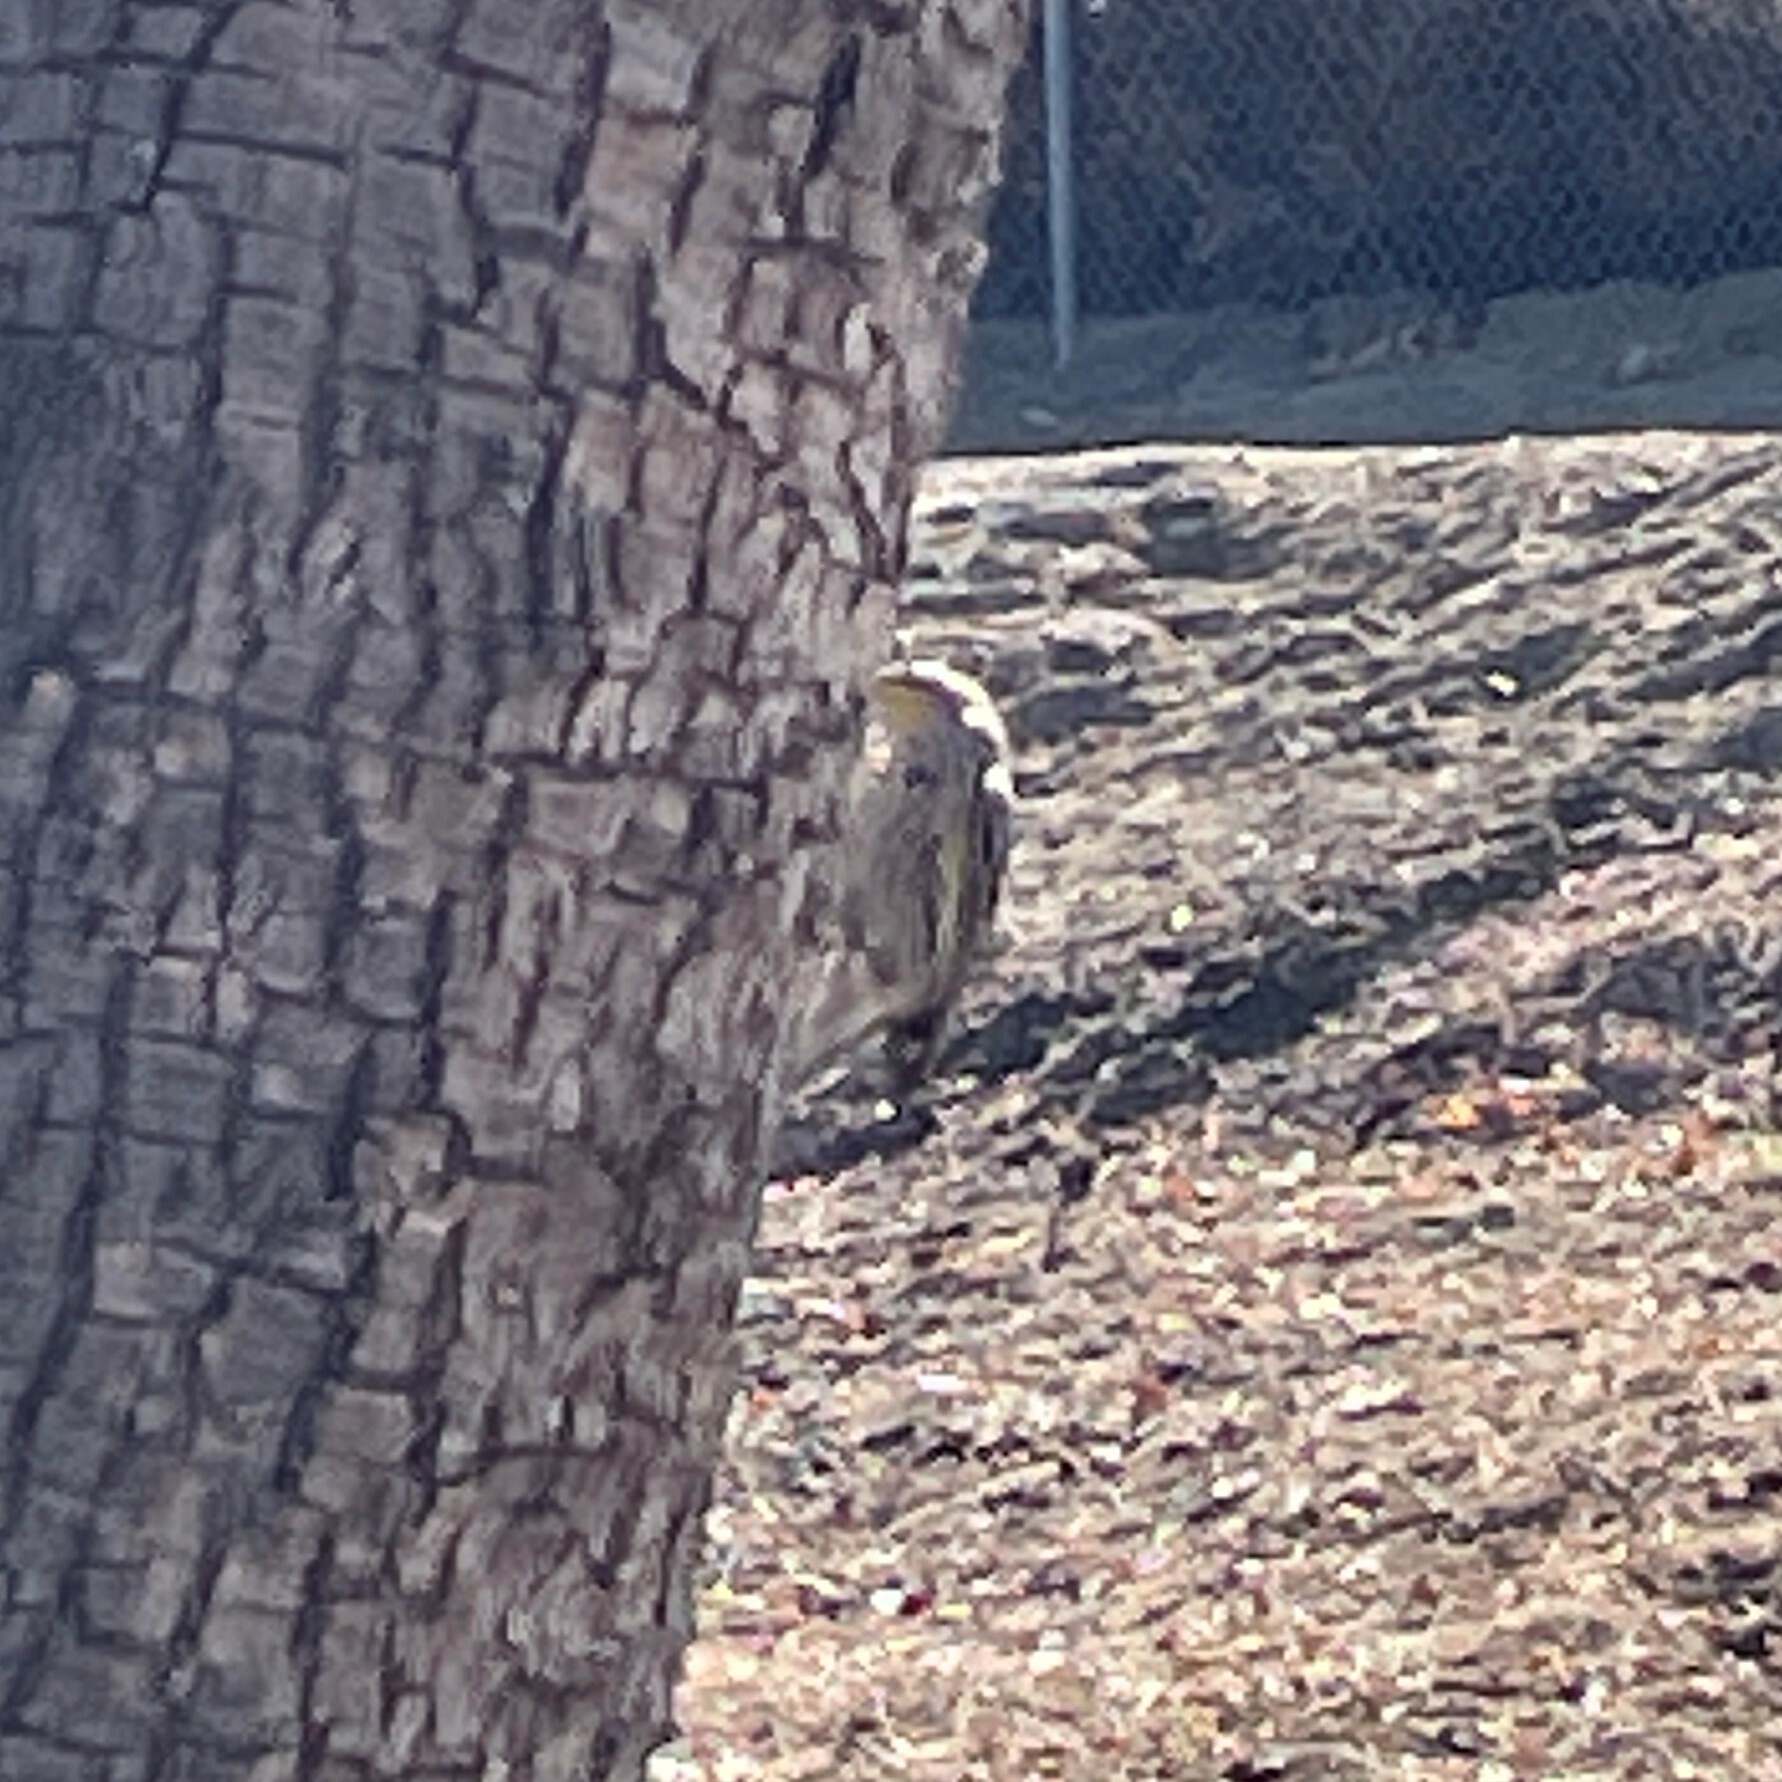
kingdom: Animalia
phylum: Chordata
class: Aves
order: Passeriformes
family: Parulidae
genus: Setophaga
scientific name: Setophaga coronata
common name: Myrtle warbler
